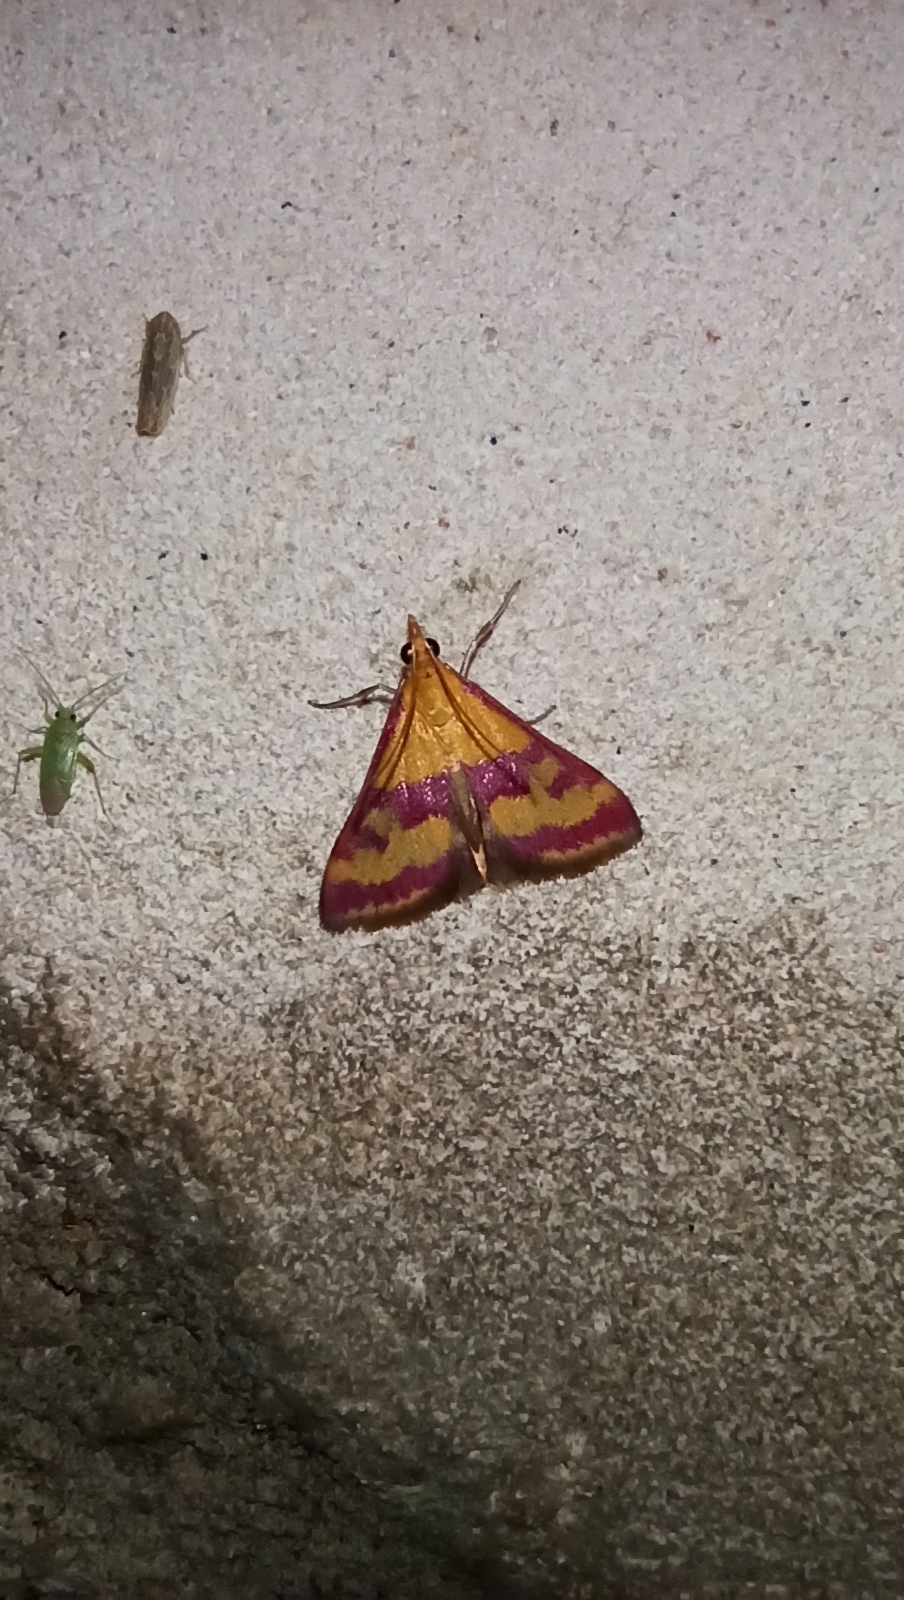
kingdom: Animalia
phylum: Arthropoda
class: Insecta
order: Lepidoptera
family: Crambidae
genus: Pyrausta
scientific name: Pyrausta sanguinalis
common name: Scarce crimson and gold
